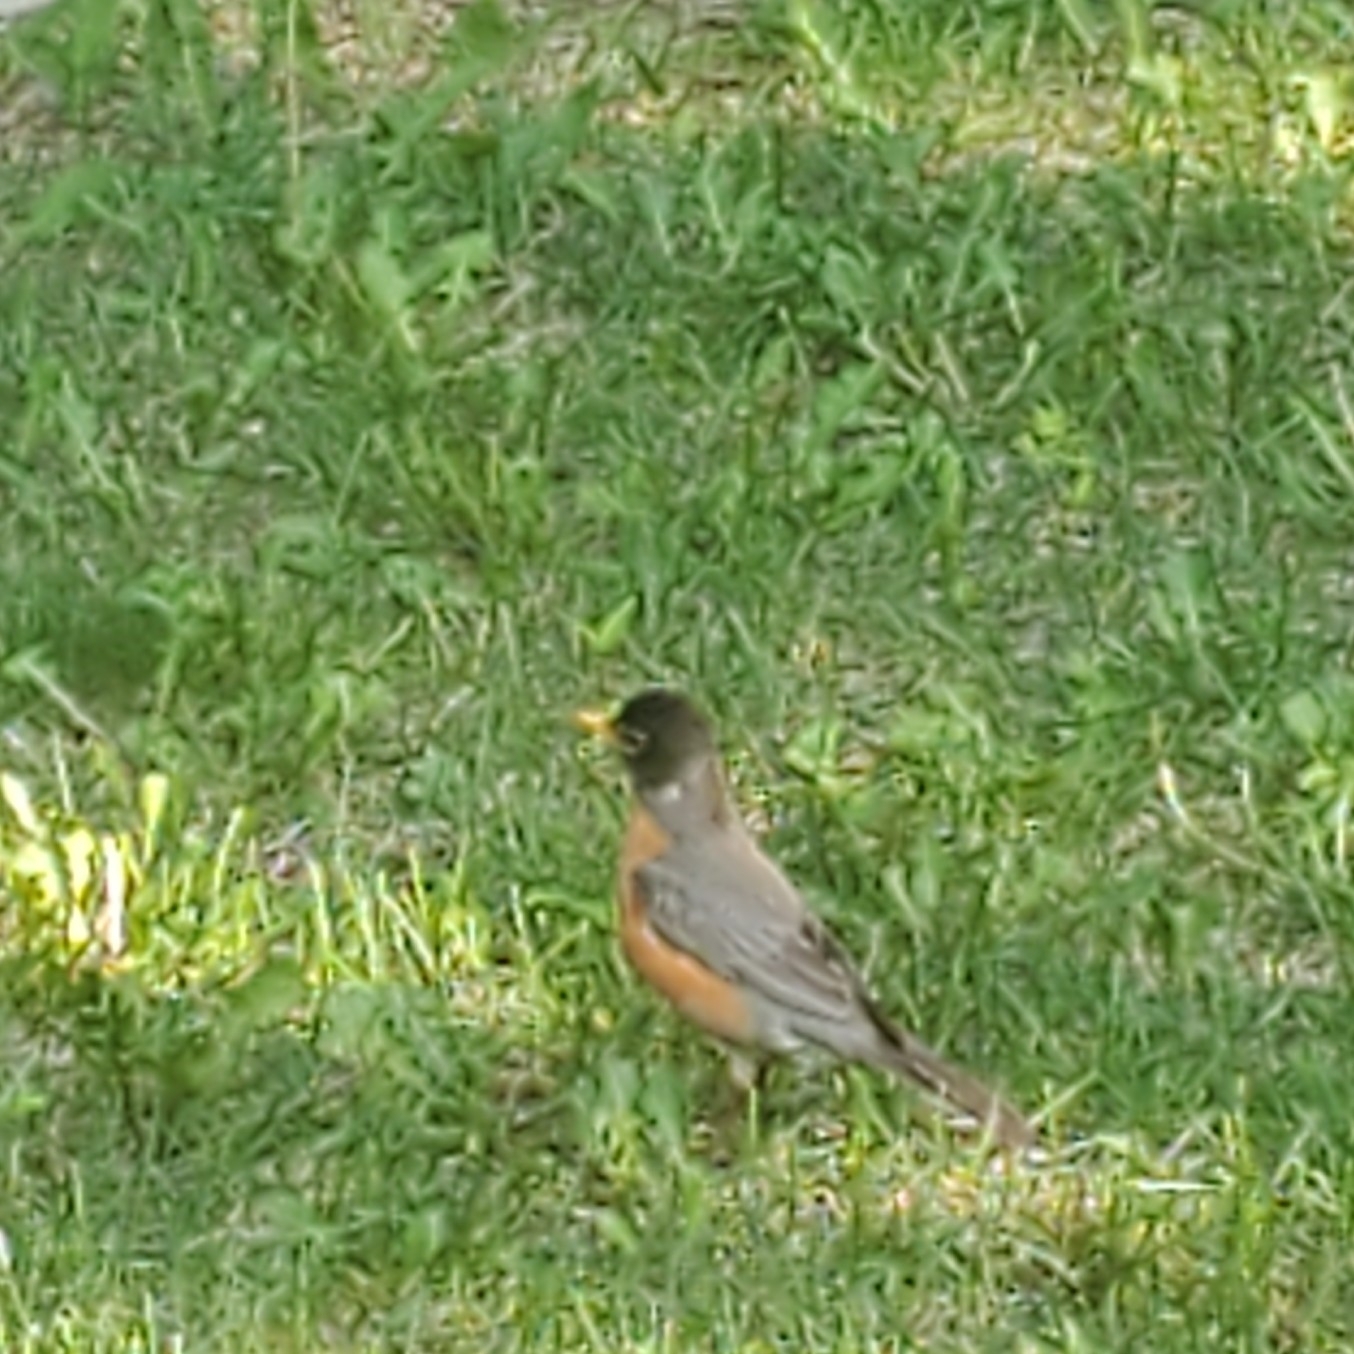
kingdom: Animalia
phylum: Chordata
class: Aves
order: Passeriformes
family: Turdidae
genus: Turdus
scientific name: Turdus migratorius
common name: American robin
